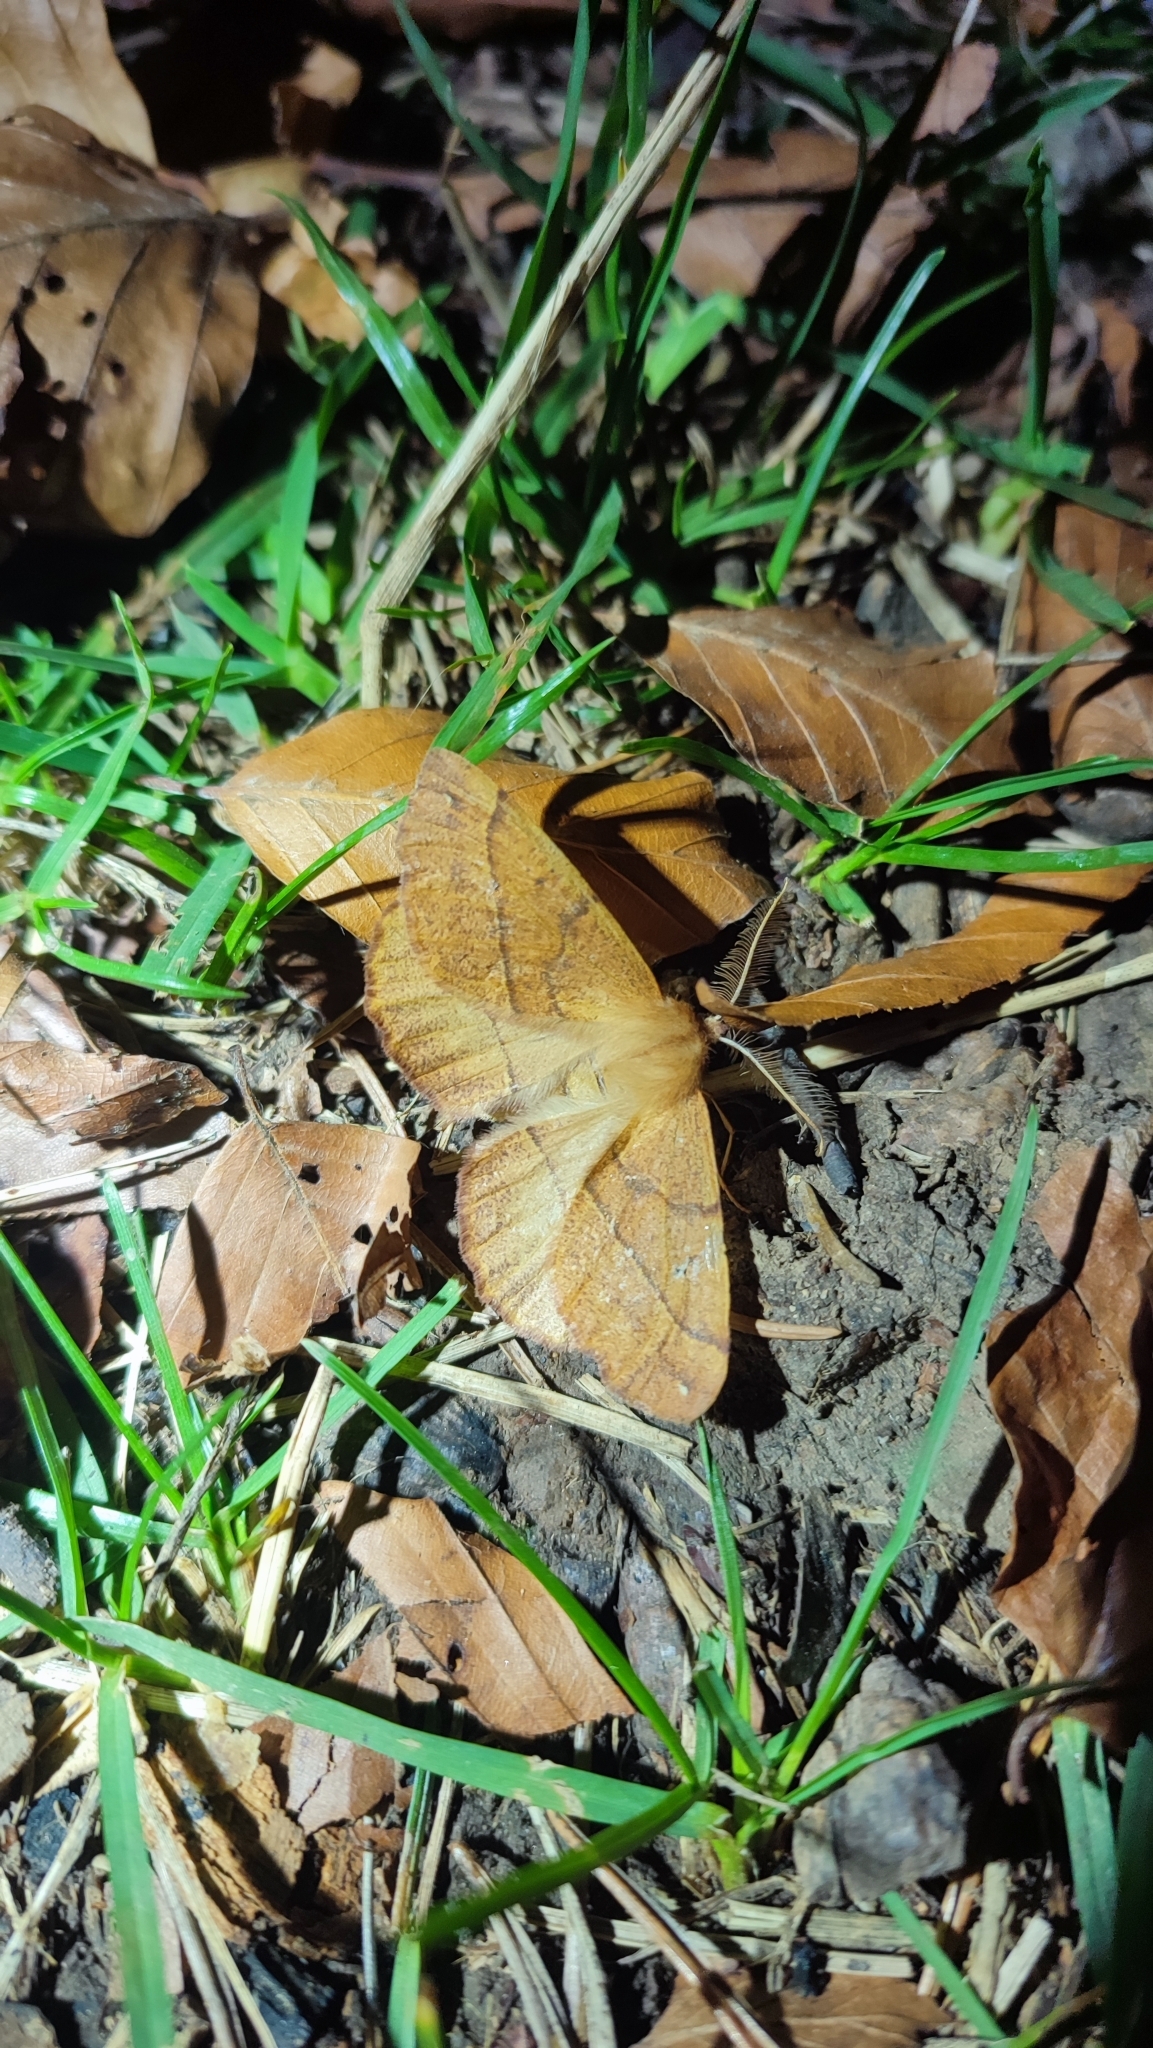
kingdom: Animalia
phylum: Arthropoda
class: Insecta
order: Lepidoptera
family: Geometridae
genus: Colotois
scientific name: Colotois pennaria
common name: Feathered thorn
